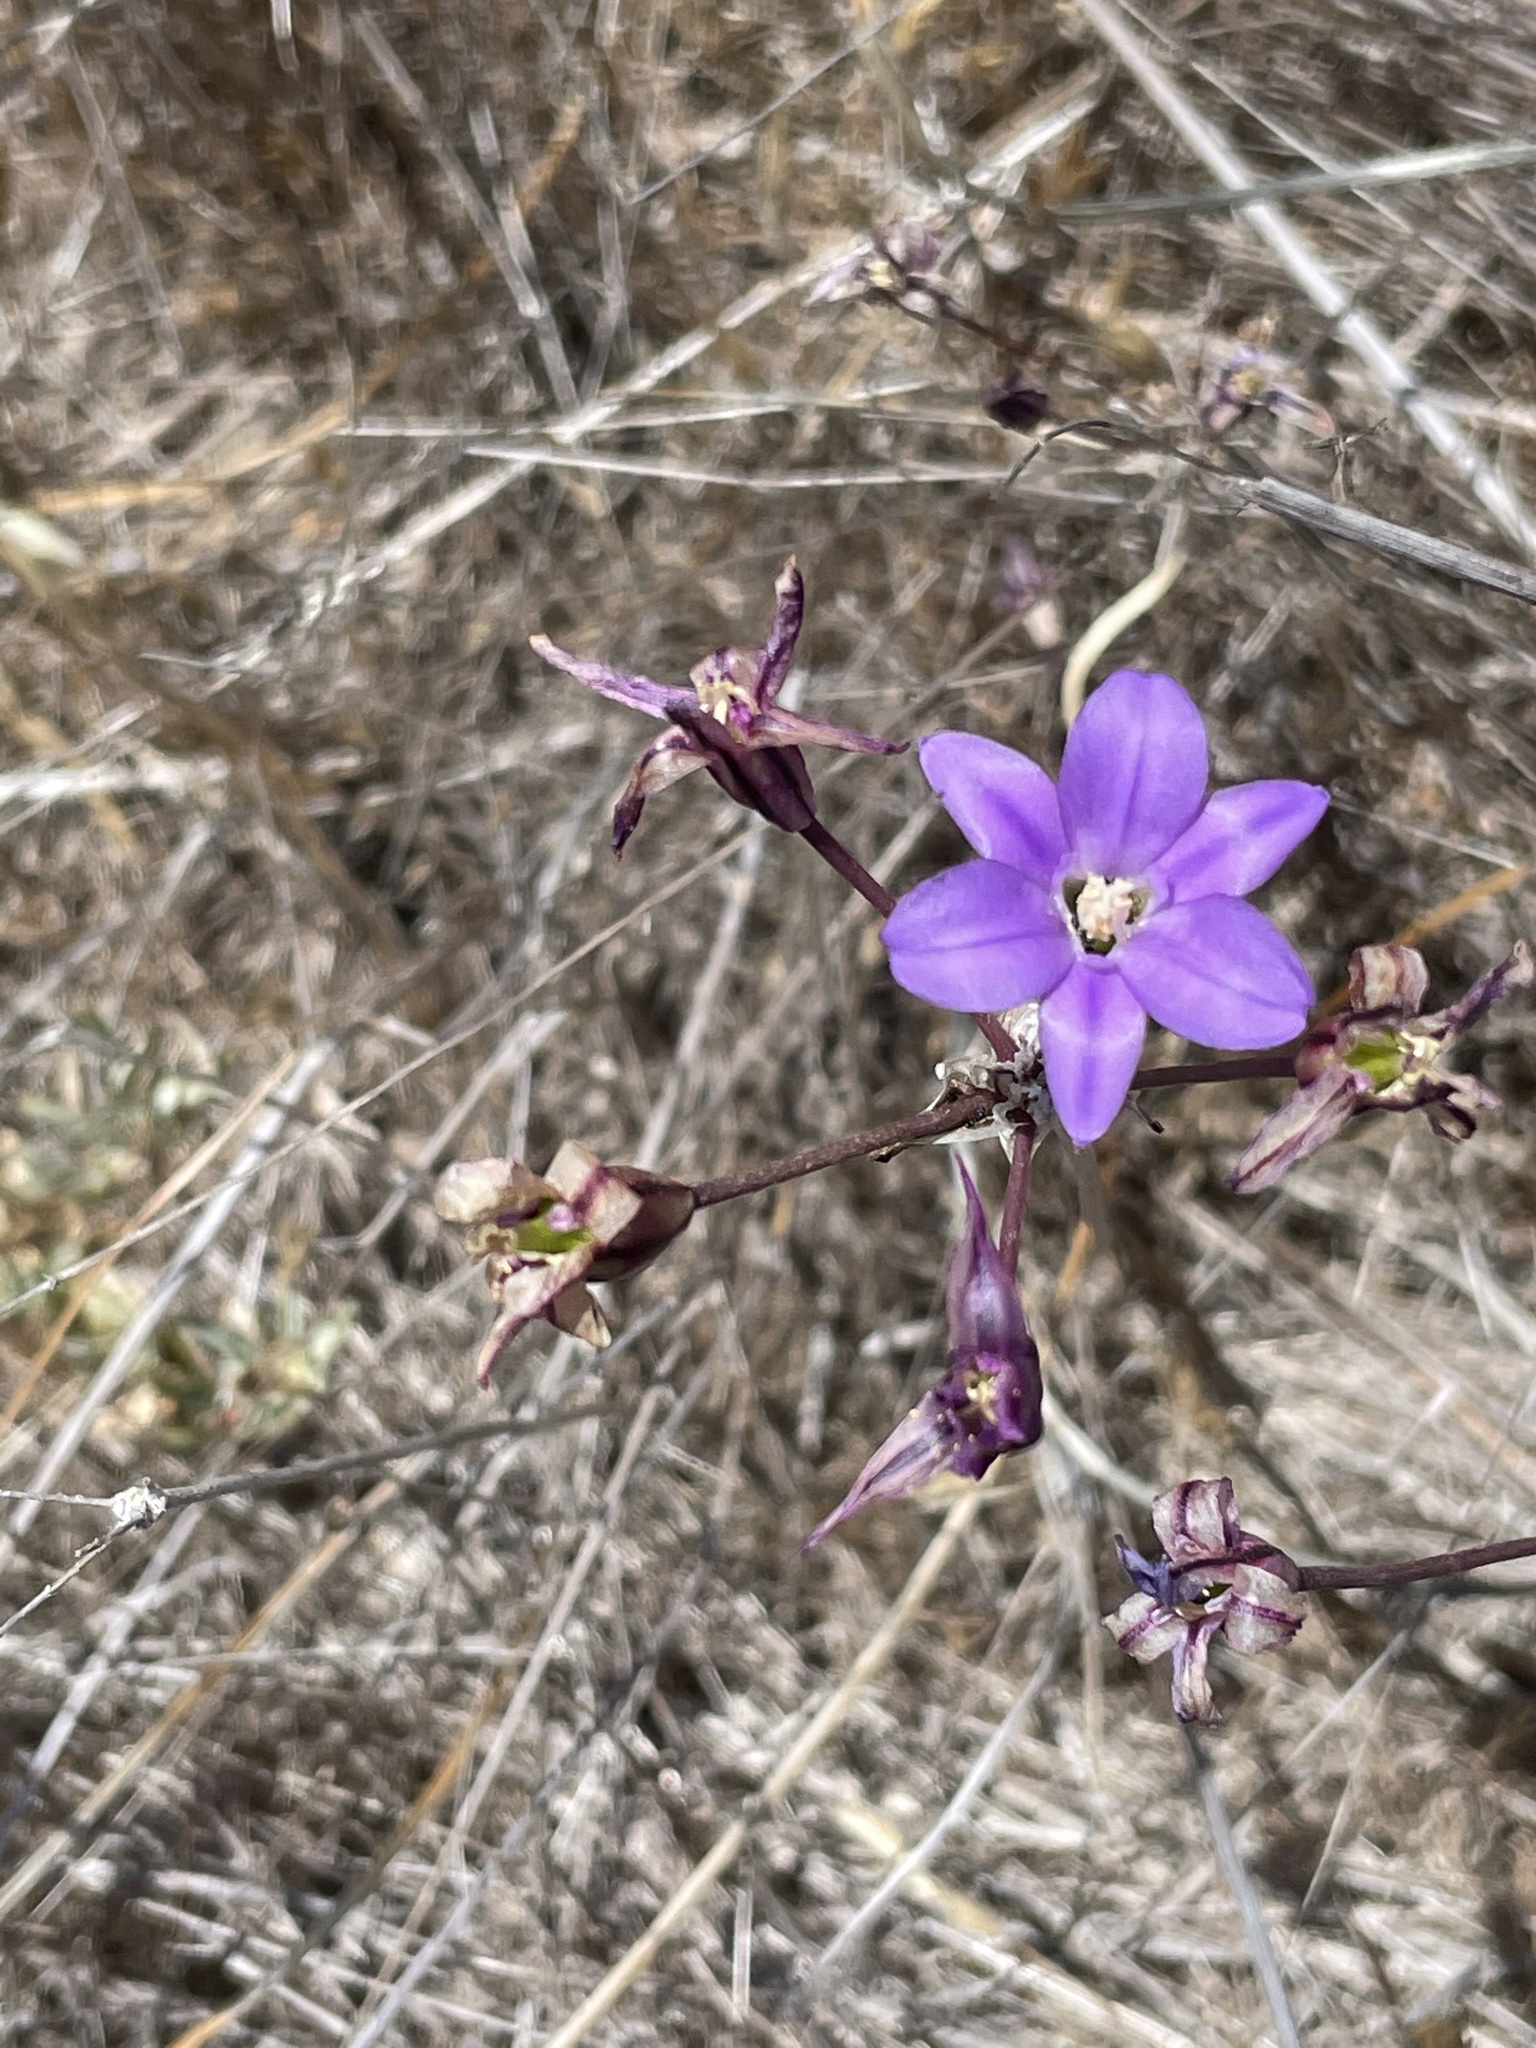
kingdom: Plantae
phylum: Tracheophyta
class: Liliopsida
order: Asparagales
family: Asparagaceae
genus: Brodiaea
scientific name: Brodiaea kinkiensis
